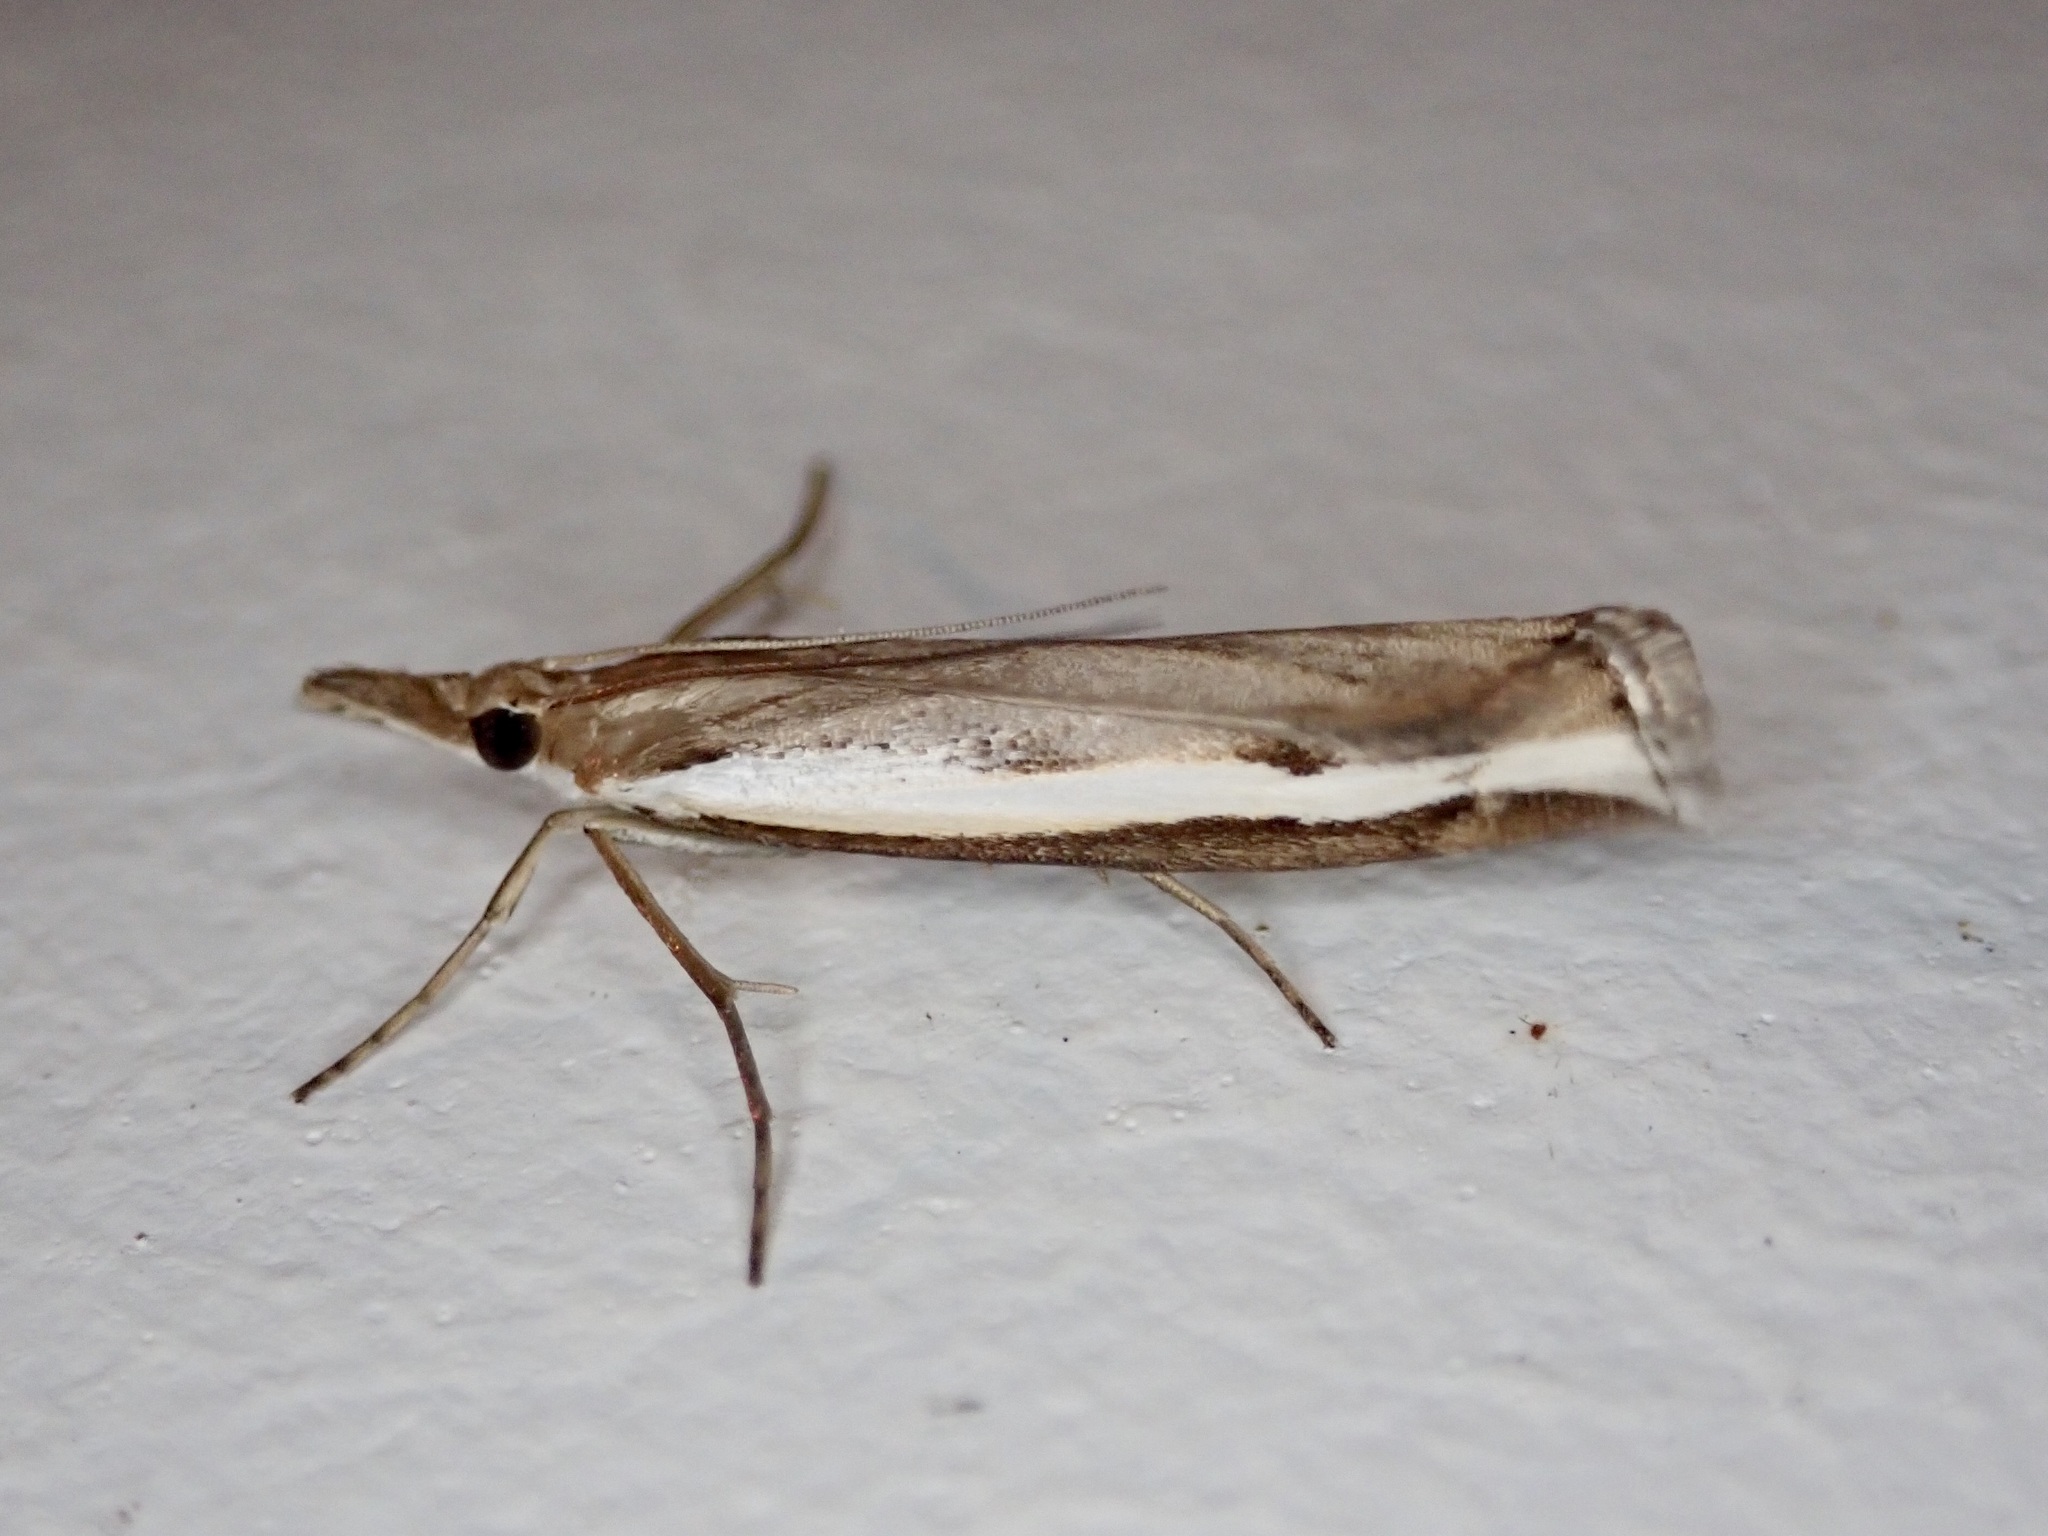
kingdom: Animalia
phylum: Arthropoda
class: Insecta
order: Lepidoptera
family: Crambidae
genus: Orocrambus
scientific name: Orocrambus flexuosellus
